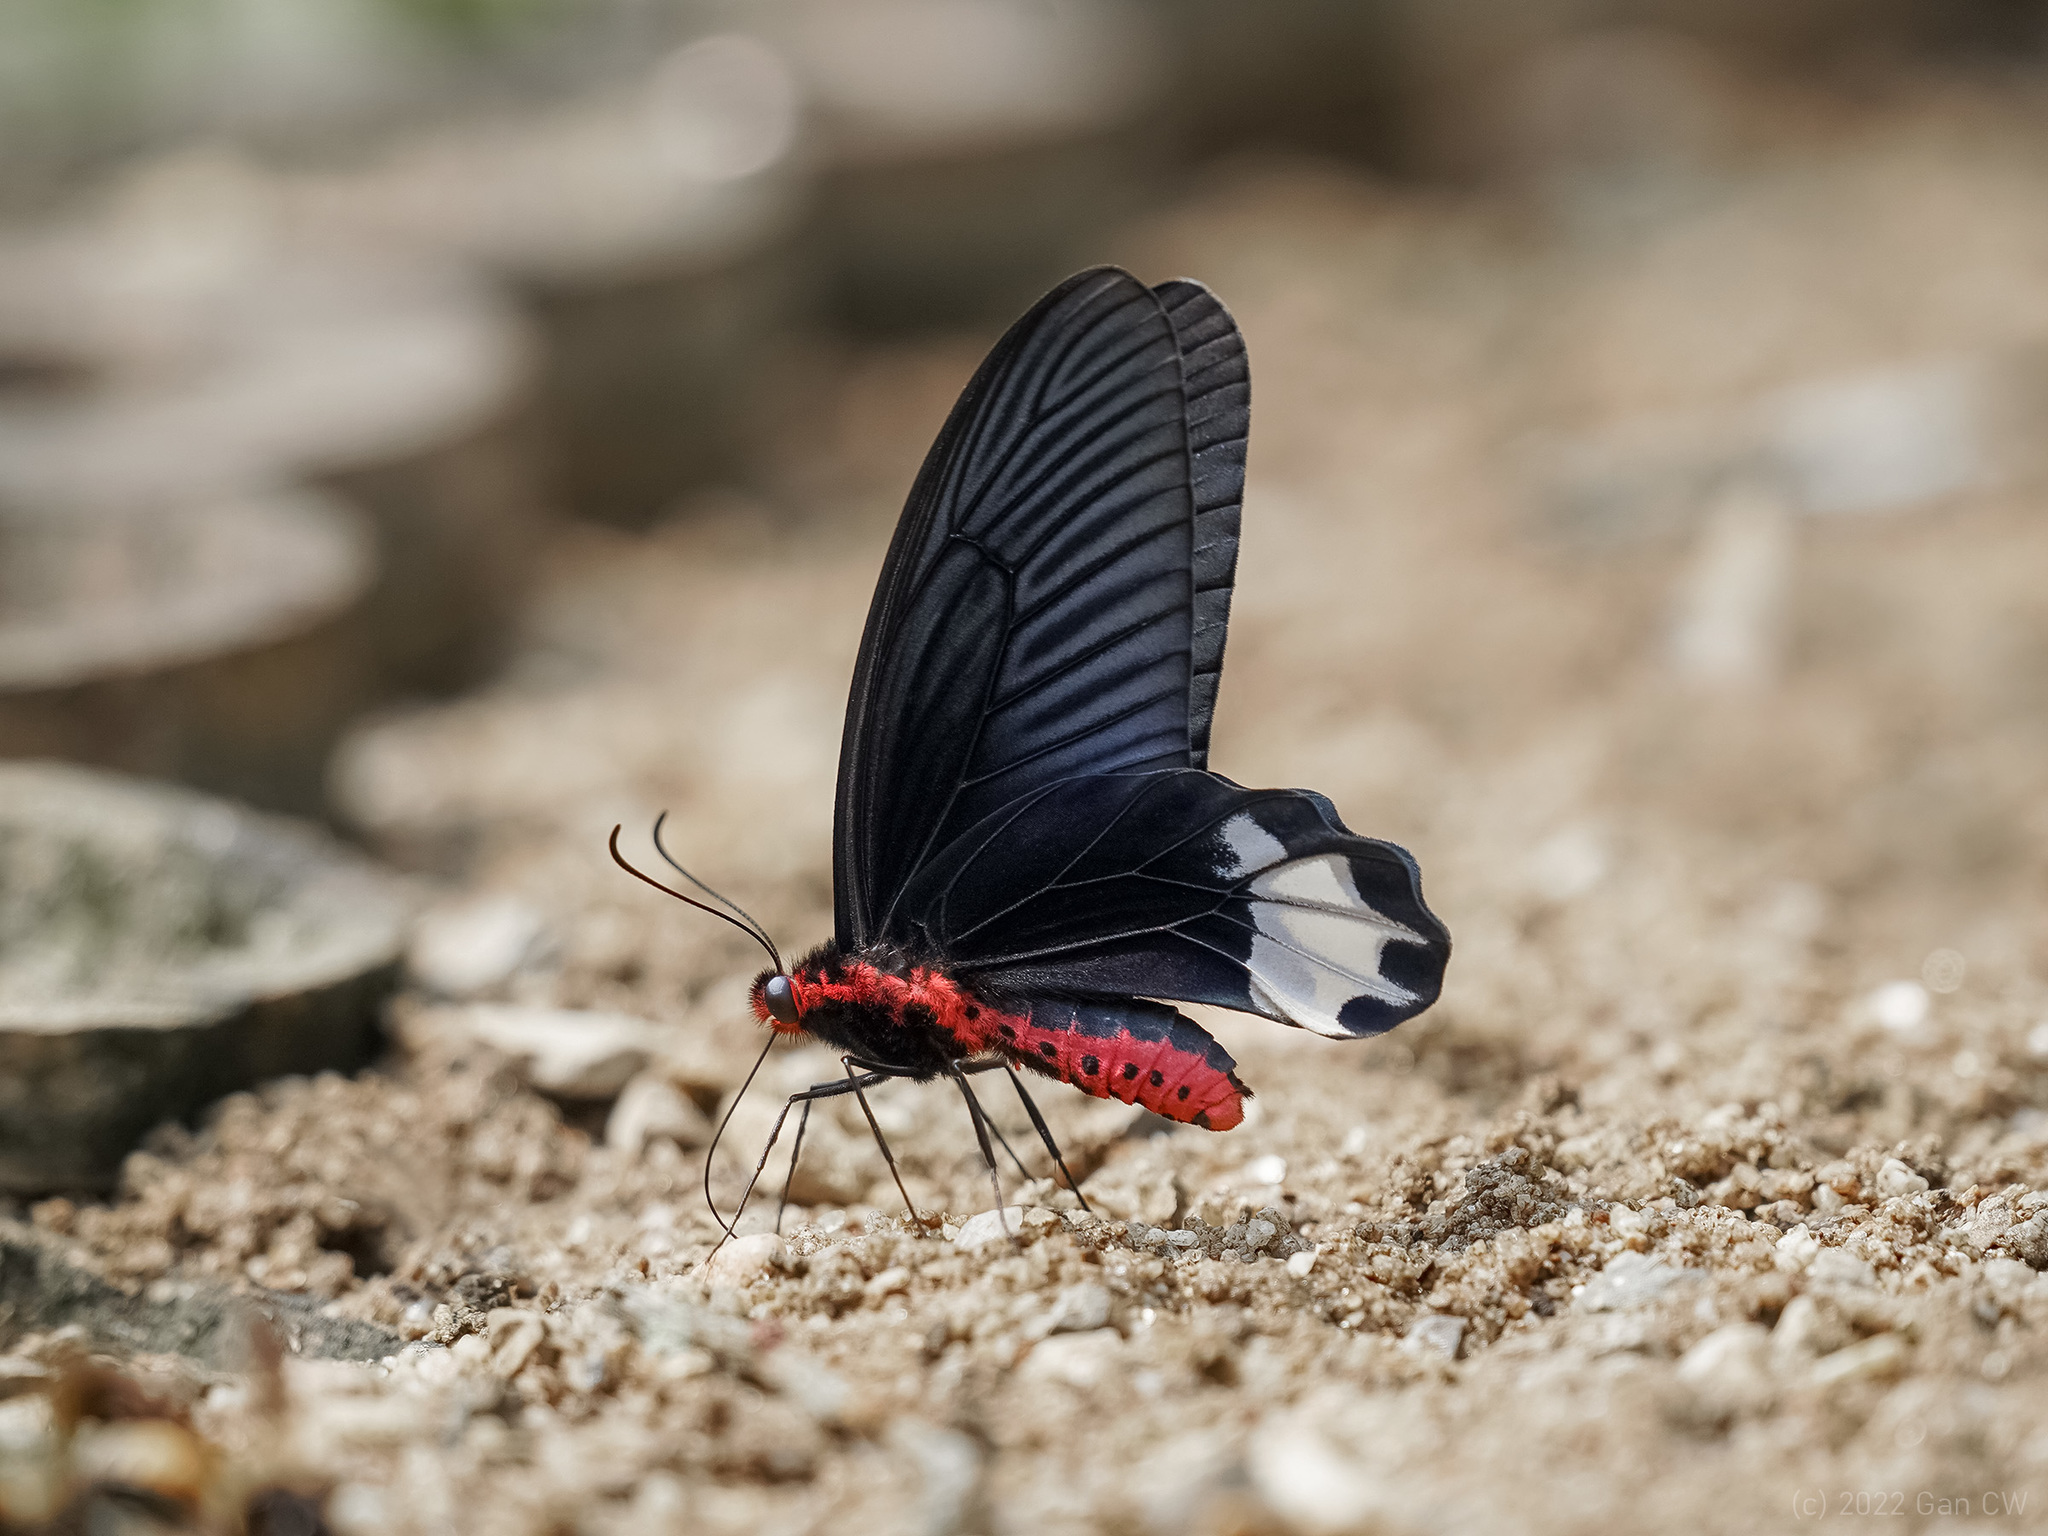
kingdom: Animalia
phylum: Arthropoda
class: Insecta
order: Lepidoptera
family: Papilionidae
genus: Atrophaneura
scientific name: Atrophaneura zaleucus
